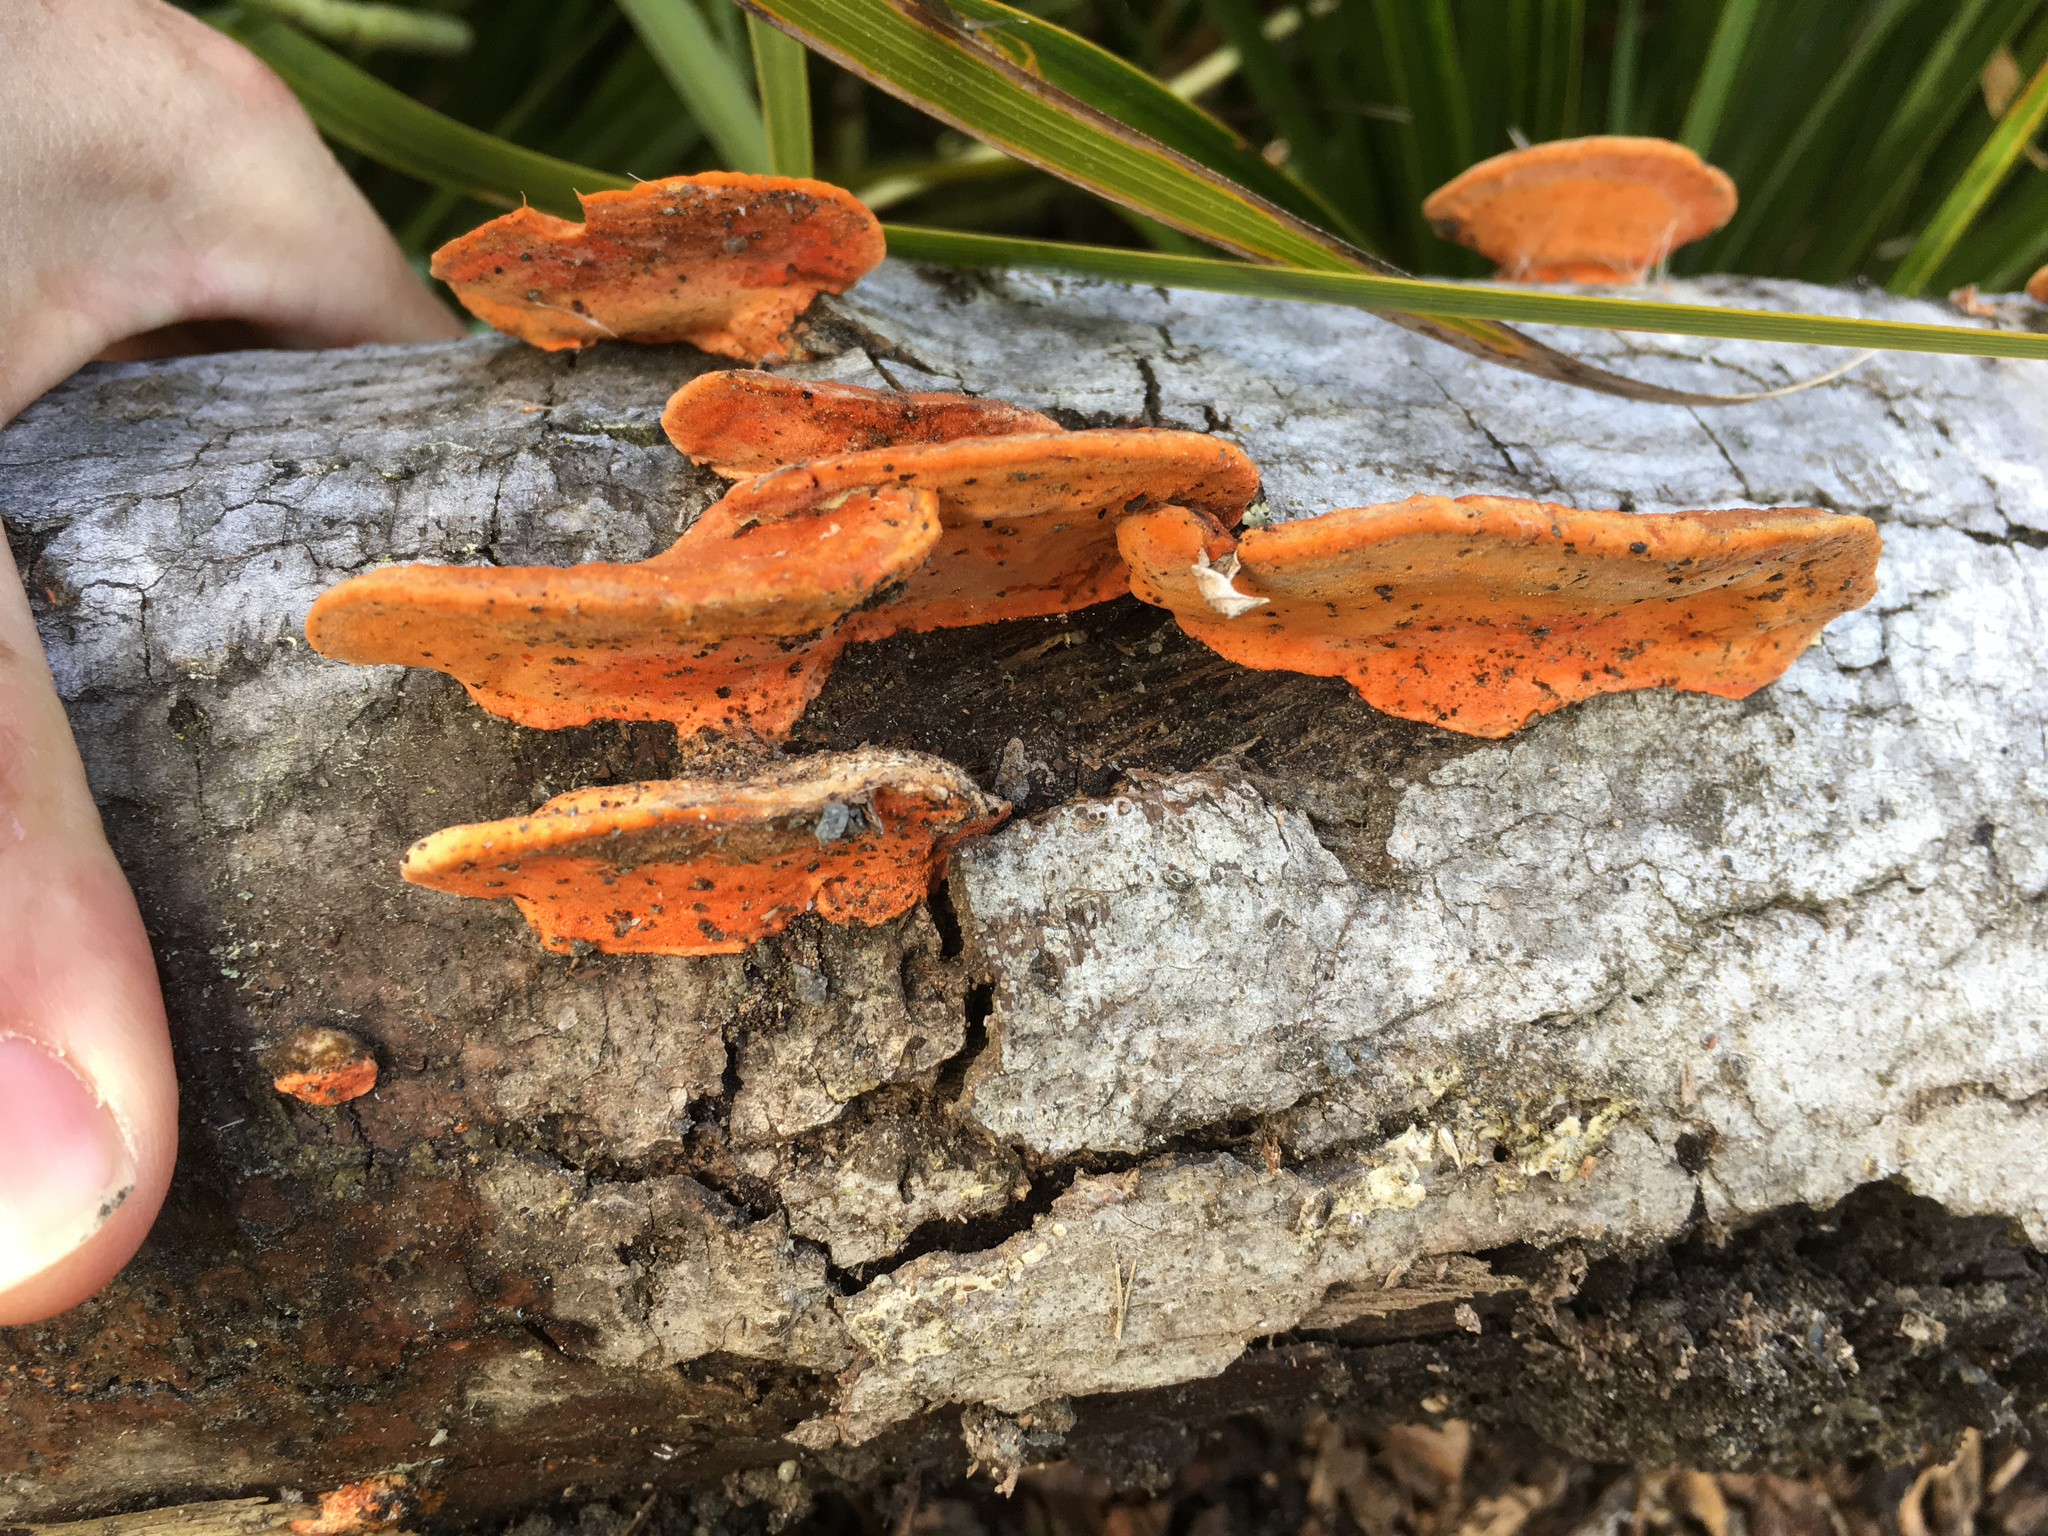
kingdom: Fungi
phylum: Basidiomycota
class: Agaricomycetes
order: Polyporales
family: Polyporaceae
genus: Trametes
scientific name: Trametes coccinea
